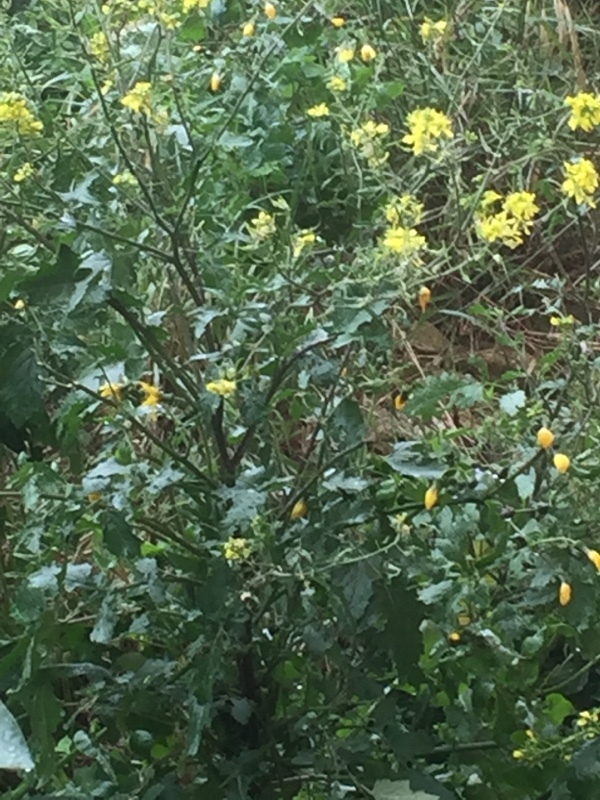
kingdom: Plantae
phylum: Tracheophyta
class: Magnoliopsida
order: Brassicales
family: Brassicaceae
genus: Sinapis
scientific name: Sinapis alba
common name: White mustard
